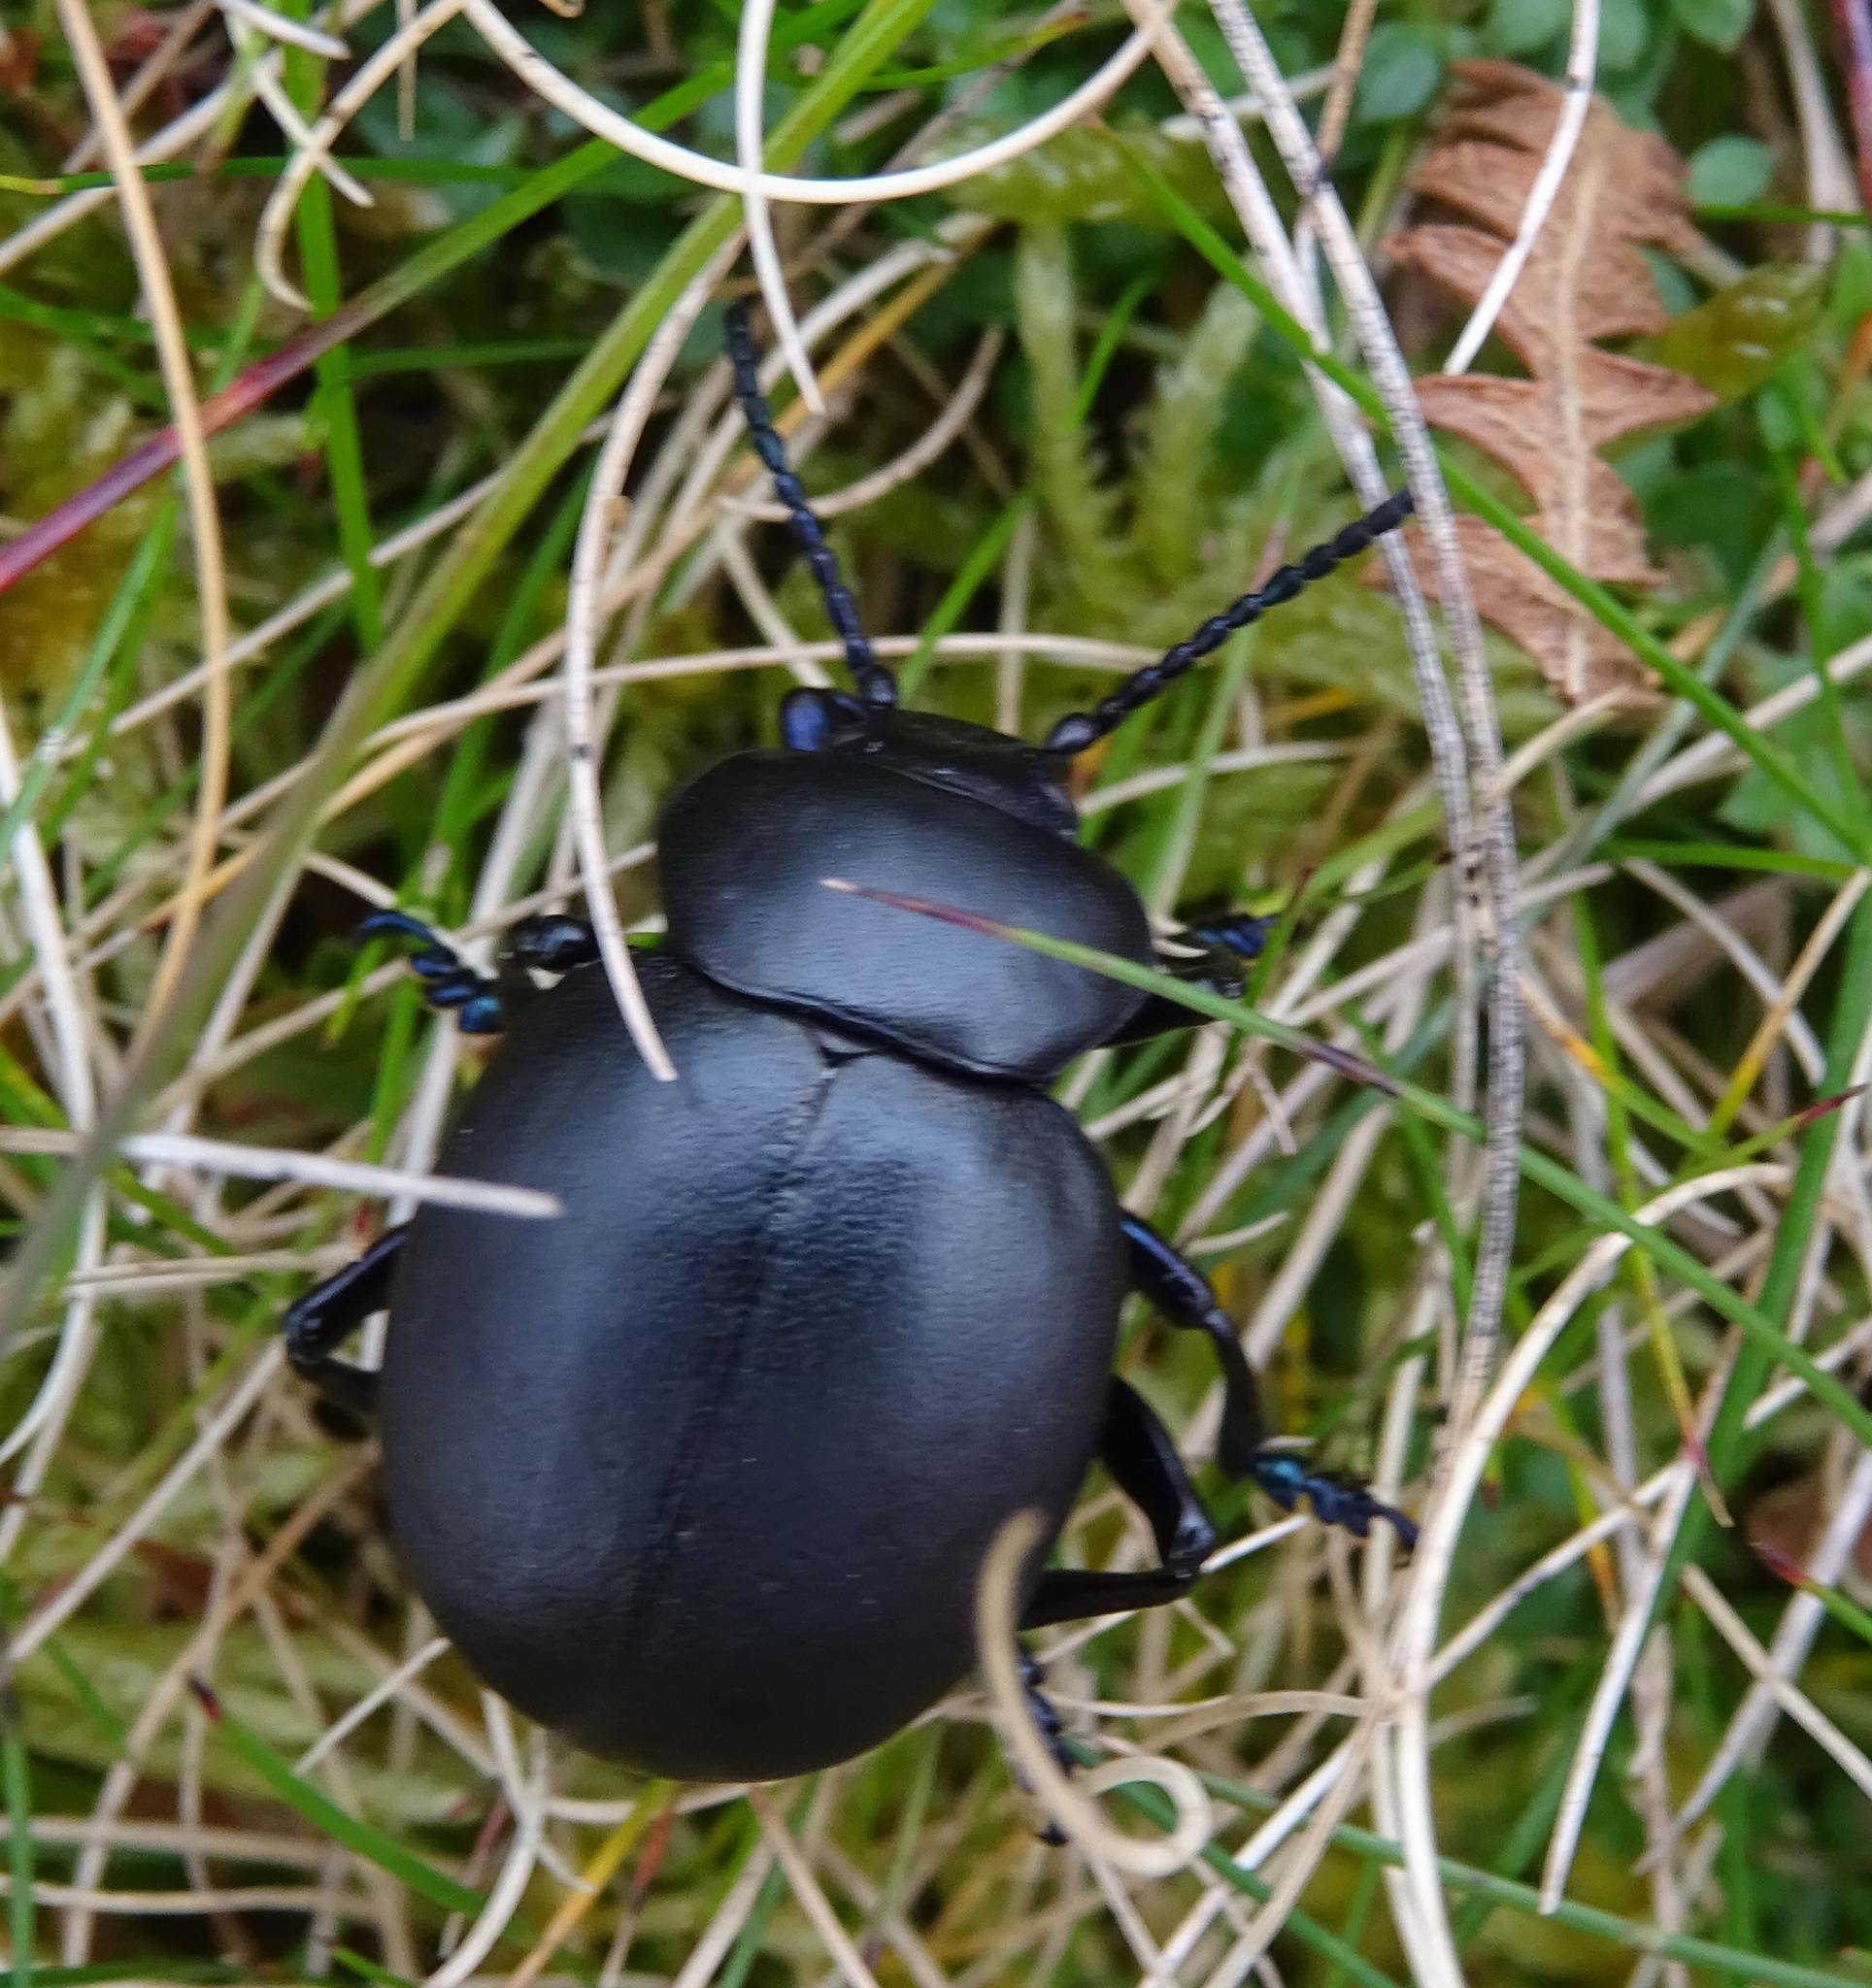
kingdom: Animalia
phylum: Arthropoda
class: Insecta
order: Coleoptera
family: Chrysomelidae
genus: Timarcha
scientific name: Timarcha tenebricosa
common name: Bloody-nosed beetle
